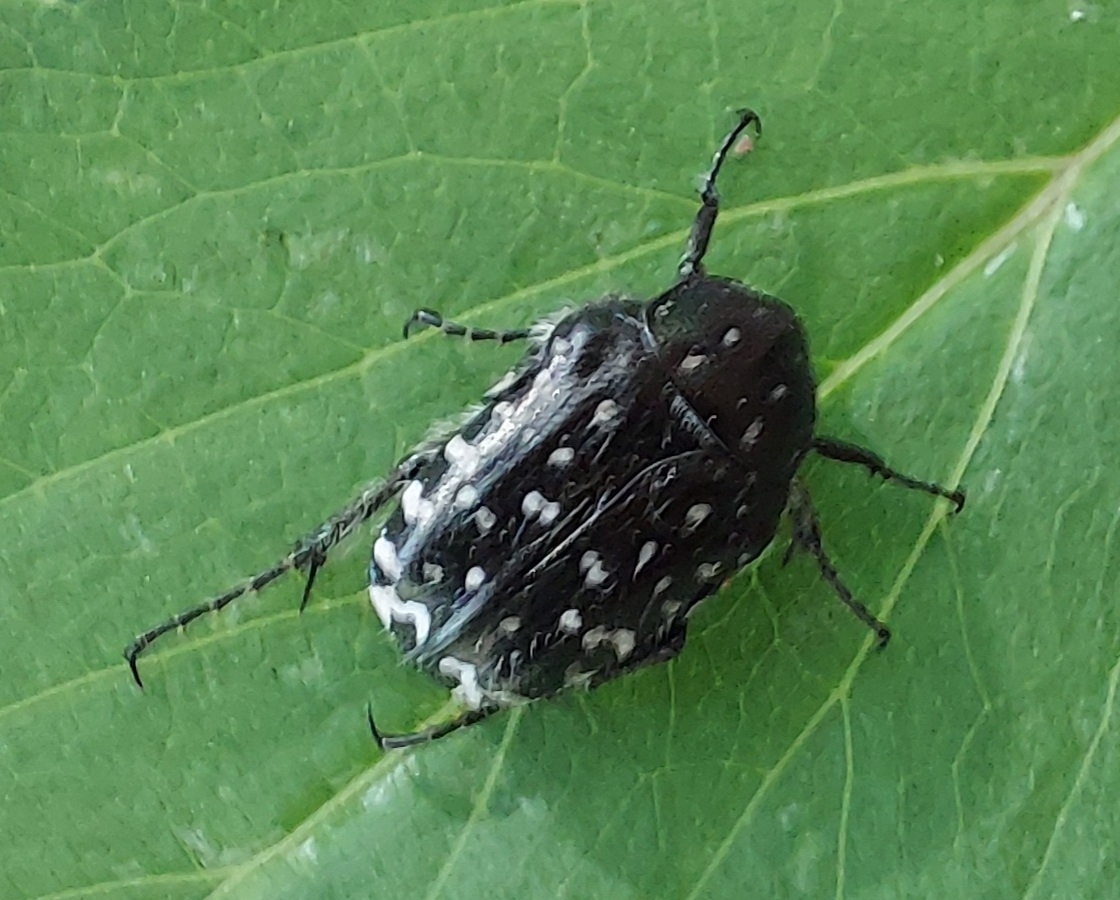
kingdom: Animalia
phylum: Arthropoda
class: Insecta
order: Coleoptera
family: Scarabaeidae
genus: Oxythyrea
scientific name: Oxythyrea funesta
